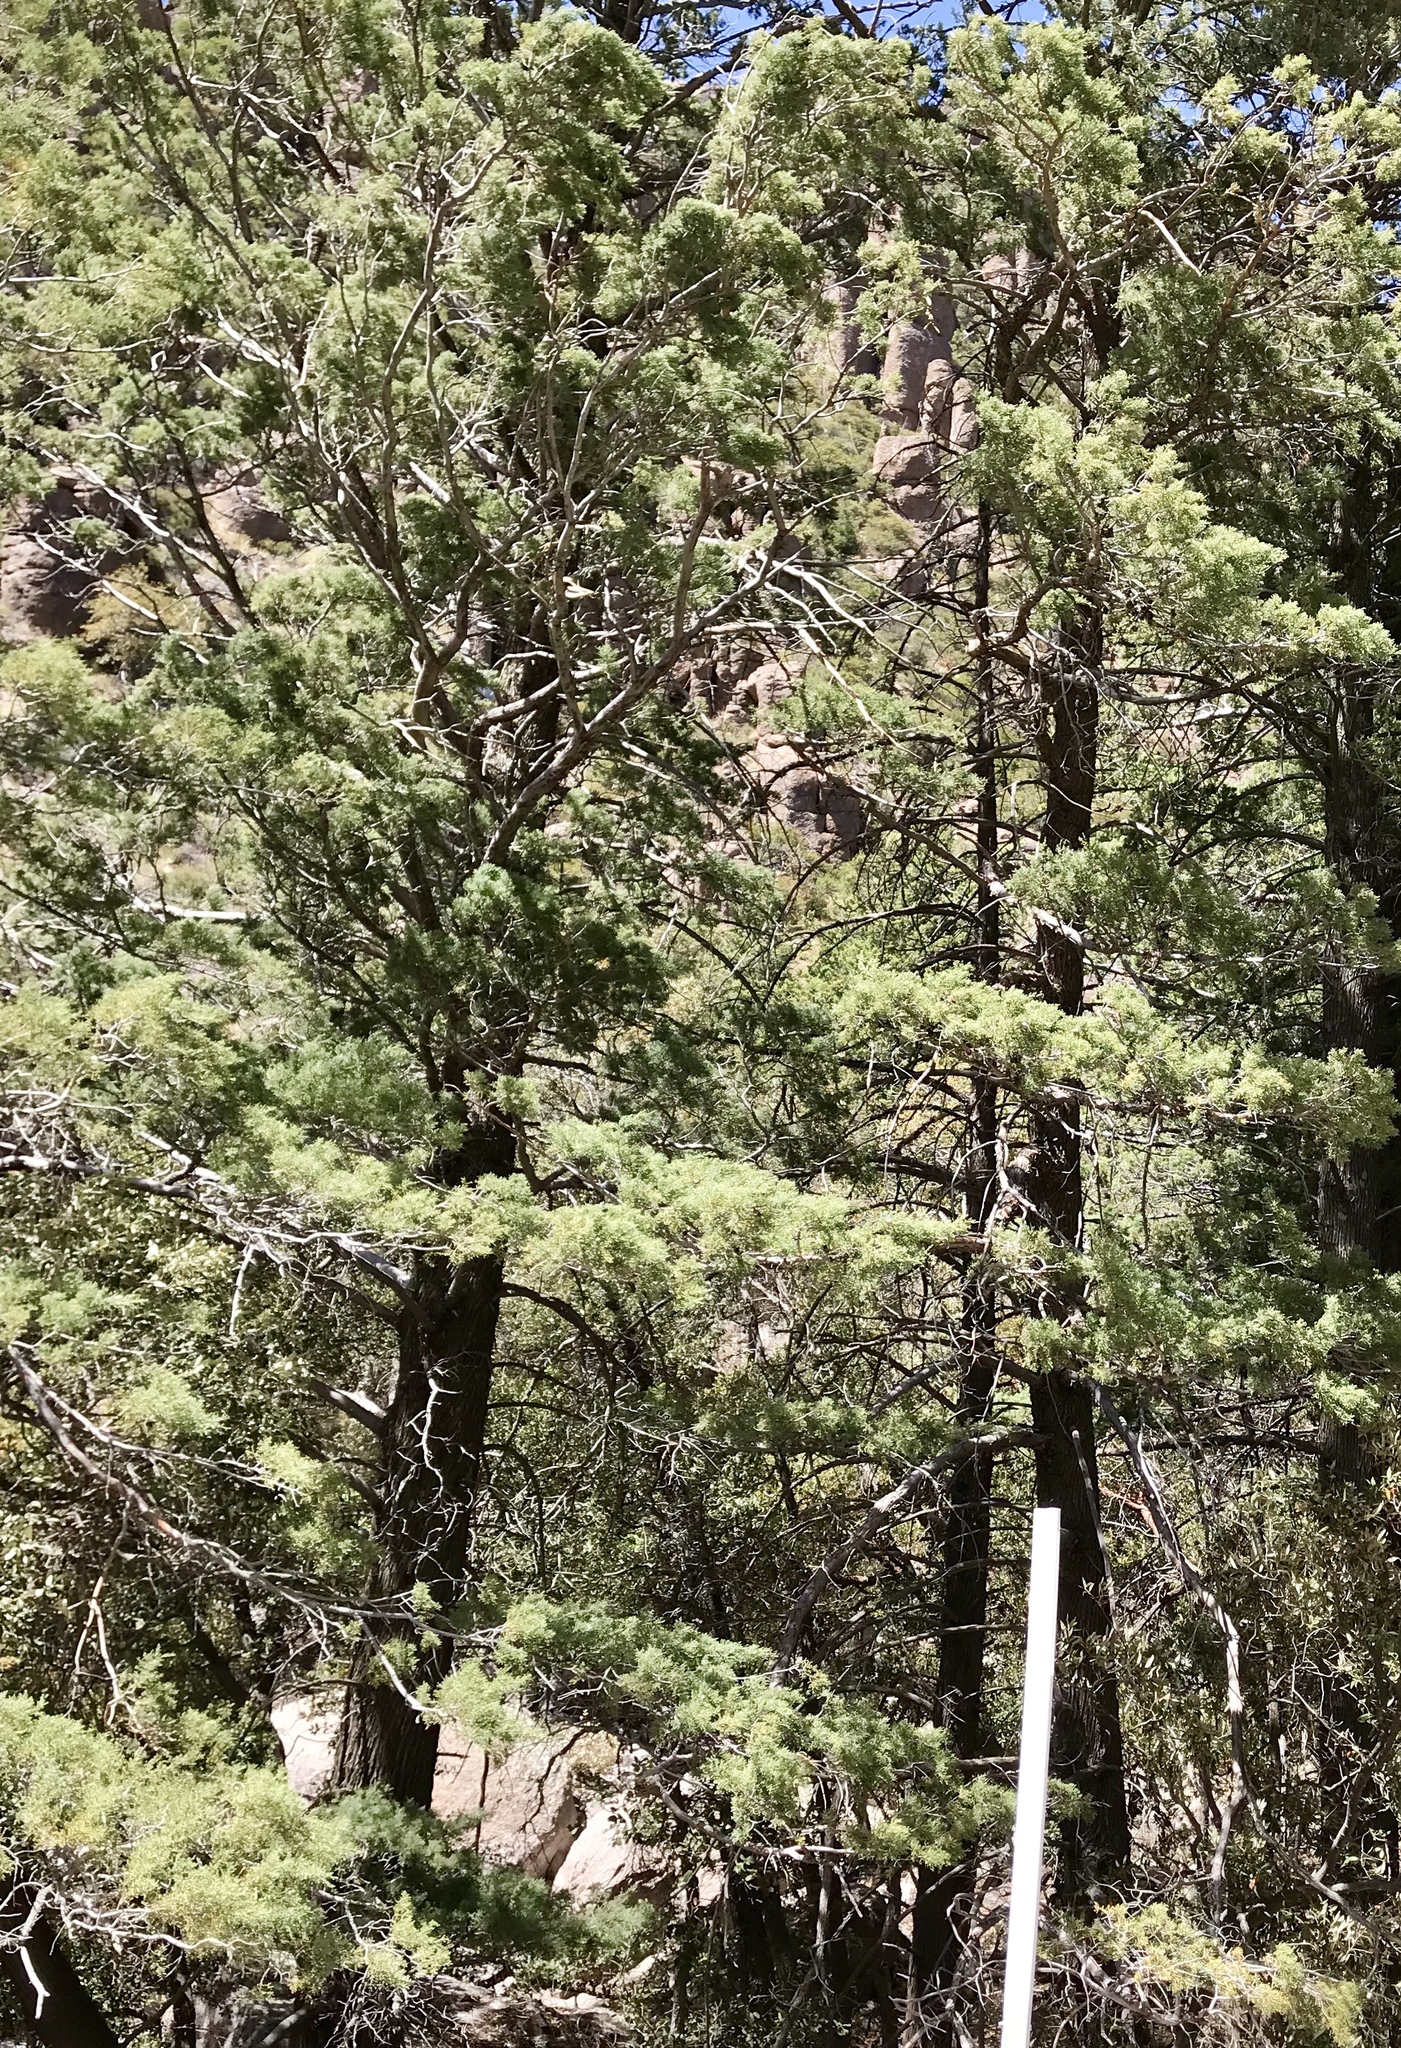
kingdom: Plantae
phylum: Tracheophyta
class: Pinopsida
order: Pinales
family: Cupressaceae
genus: Cupressus
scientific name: Cupressus arizonica
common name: Arizona cypress
